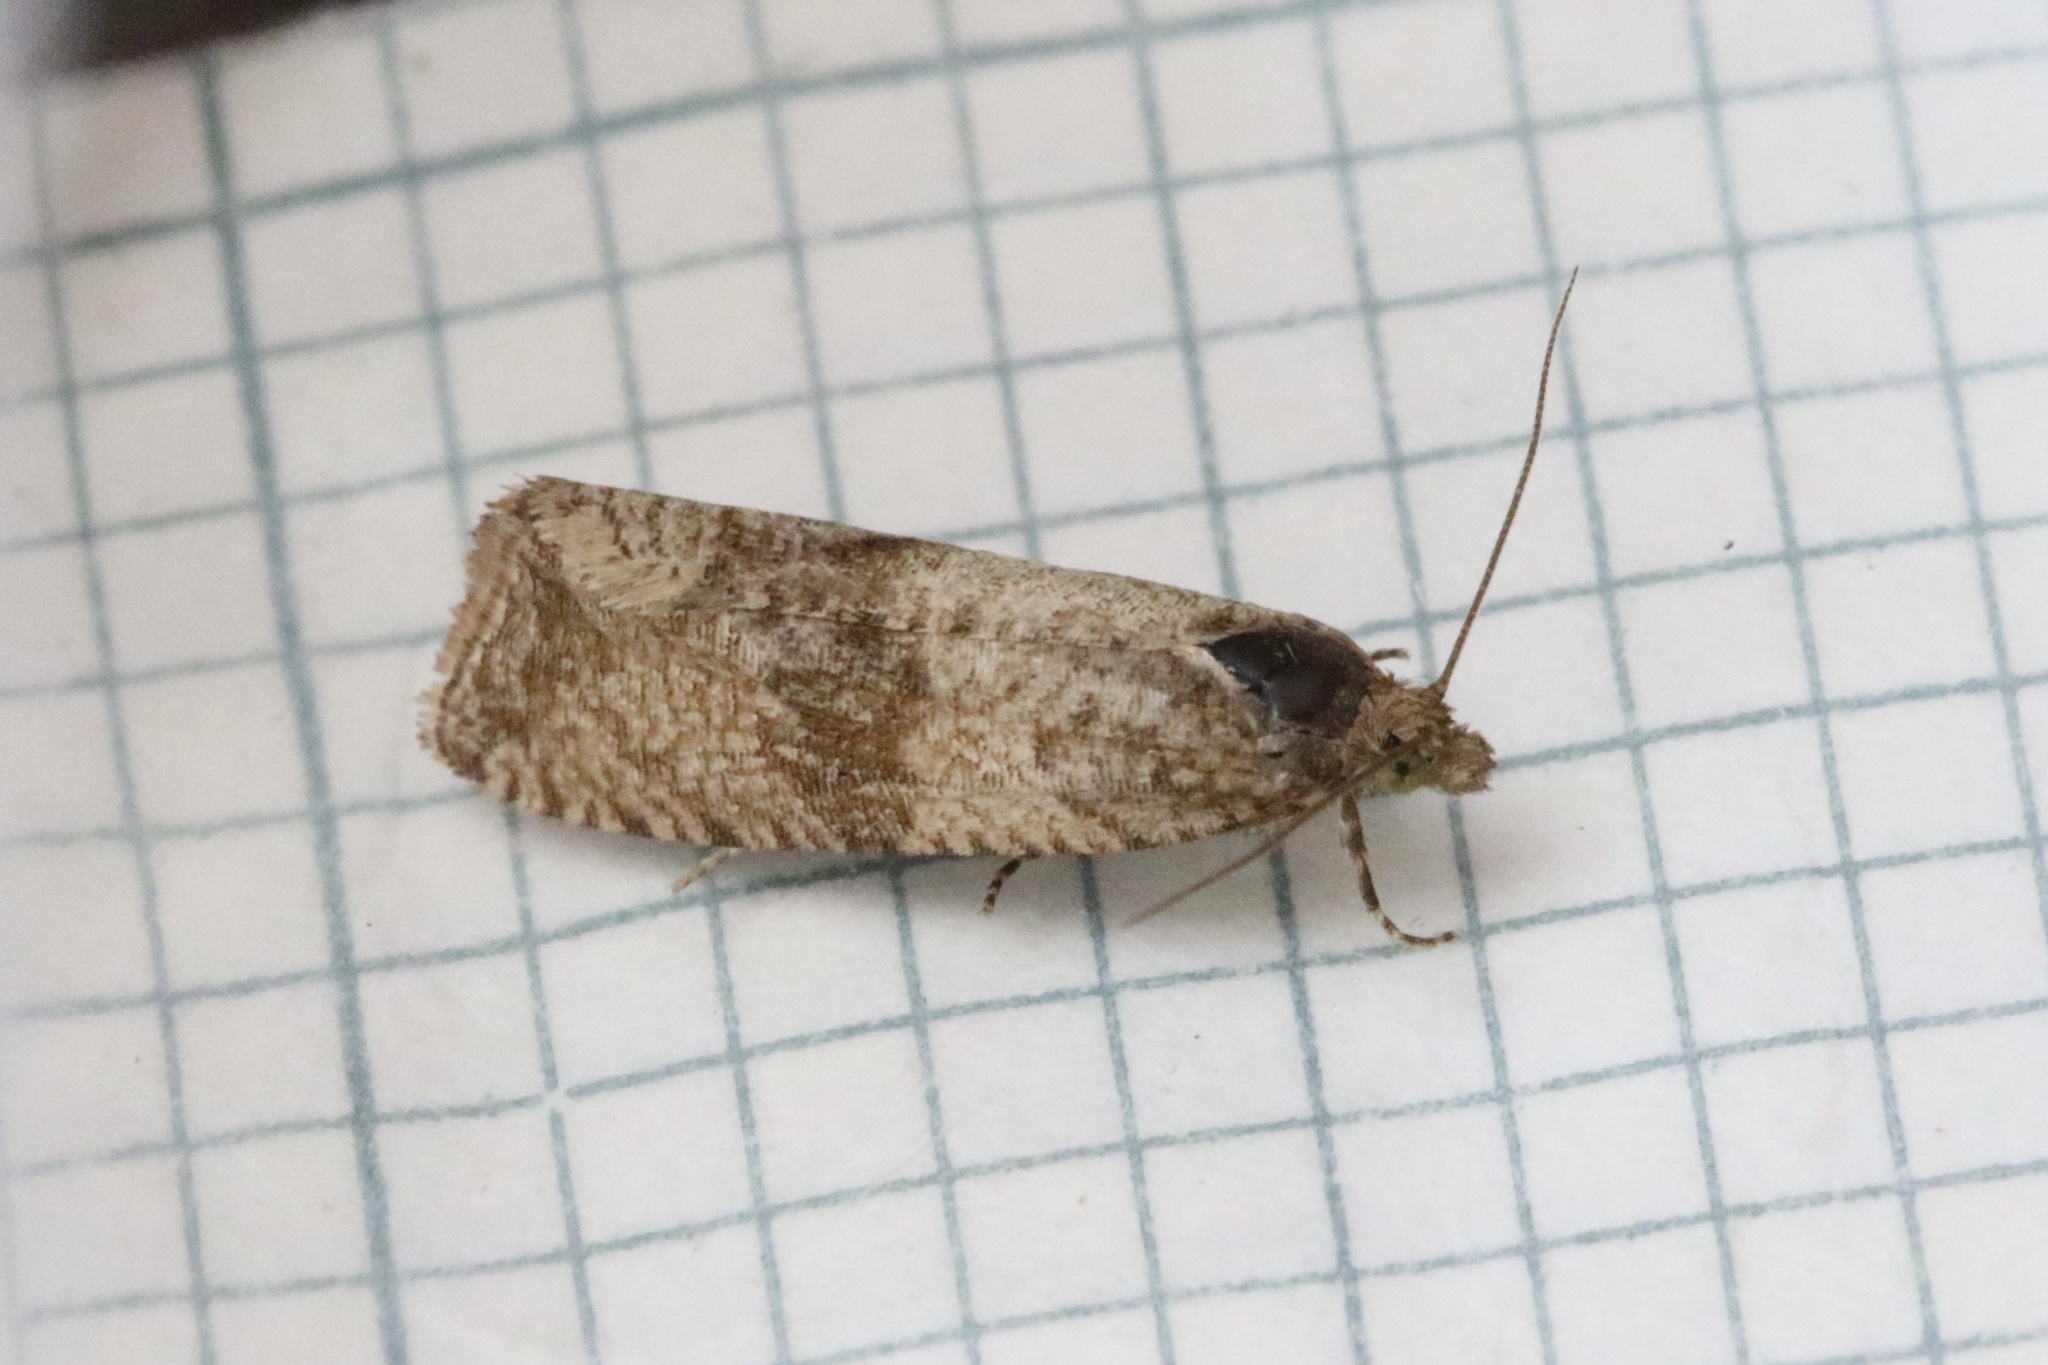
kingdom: Animalia
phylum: Arthropoda
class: Insecta
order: Lepidoptera
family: Tortricidae
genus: Celypha
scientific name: Celypha striana
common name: Barred marble
